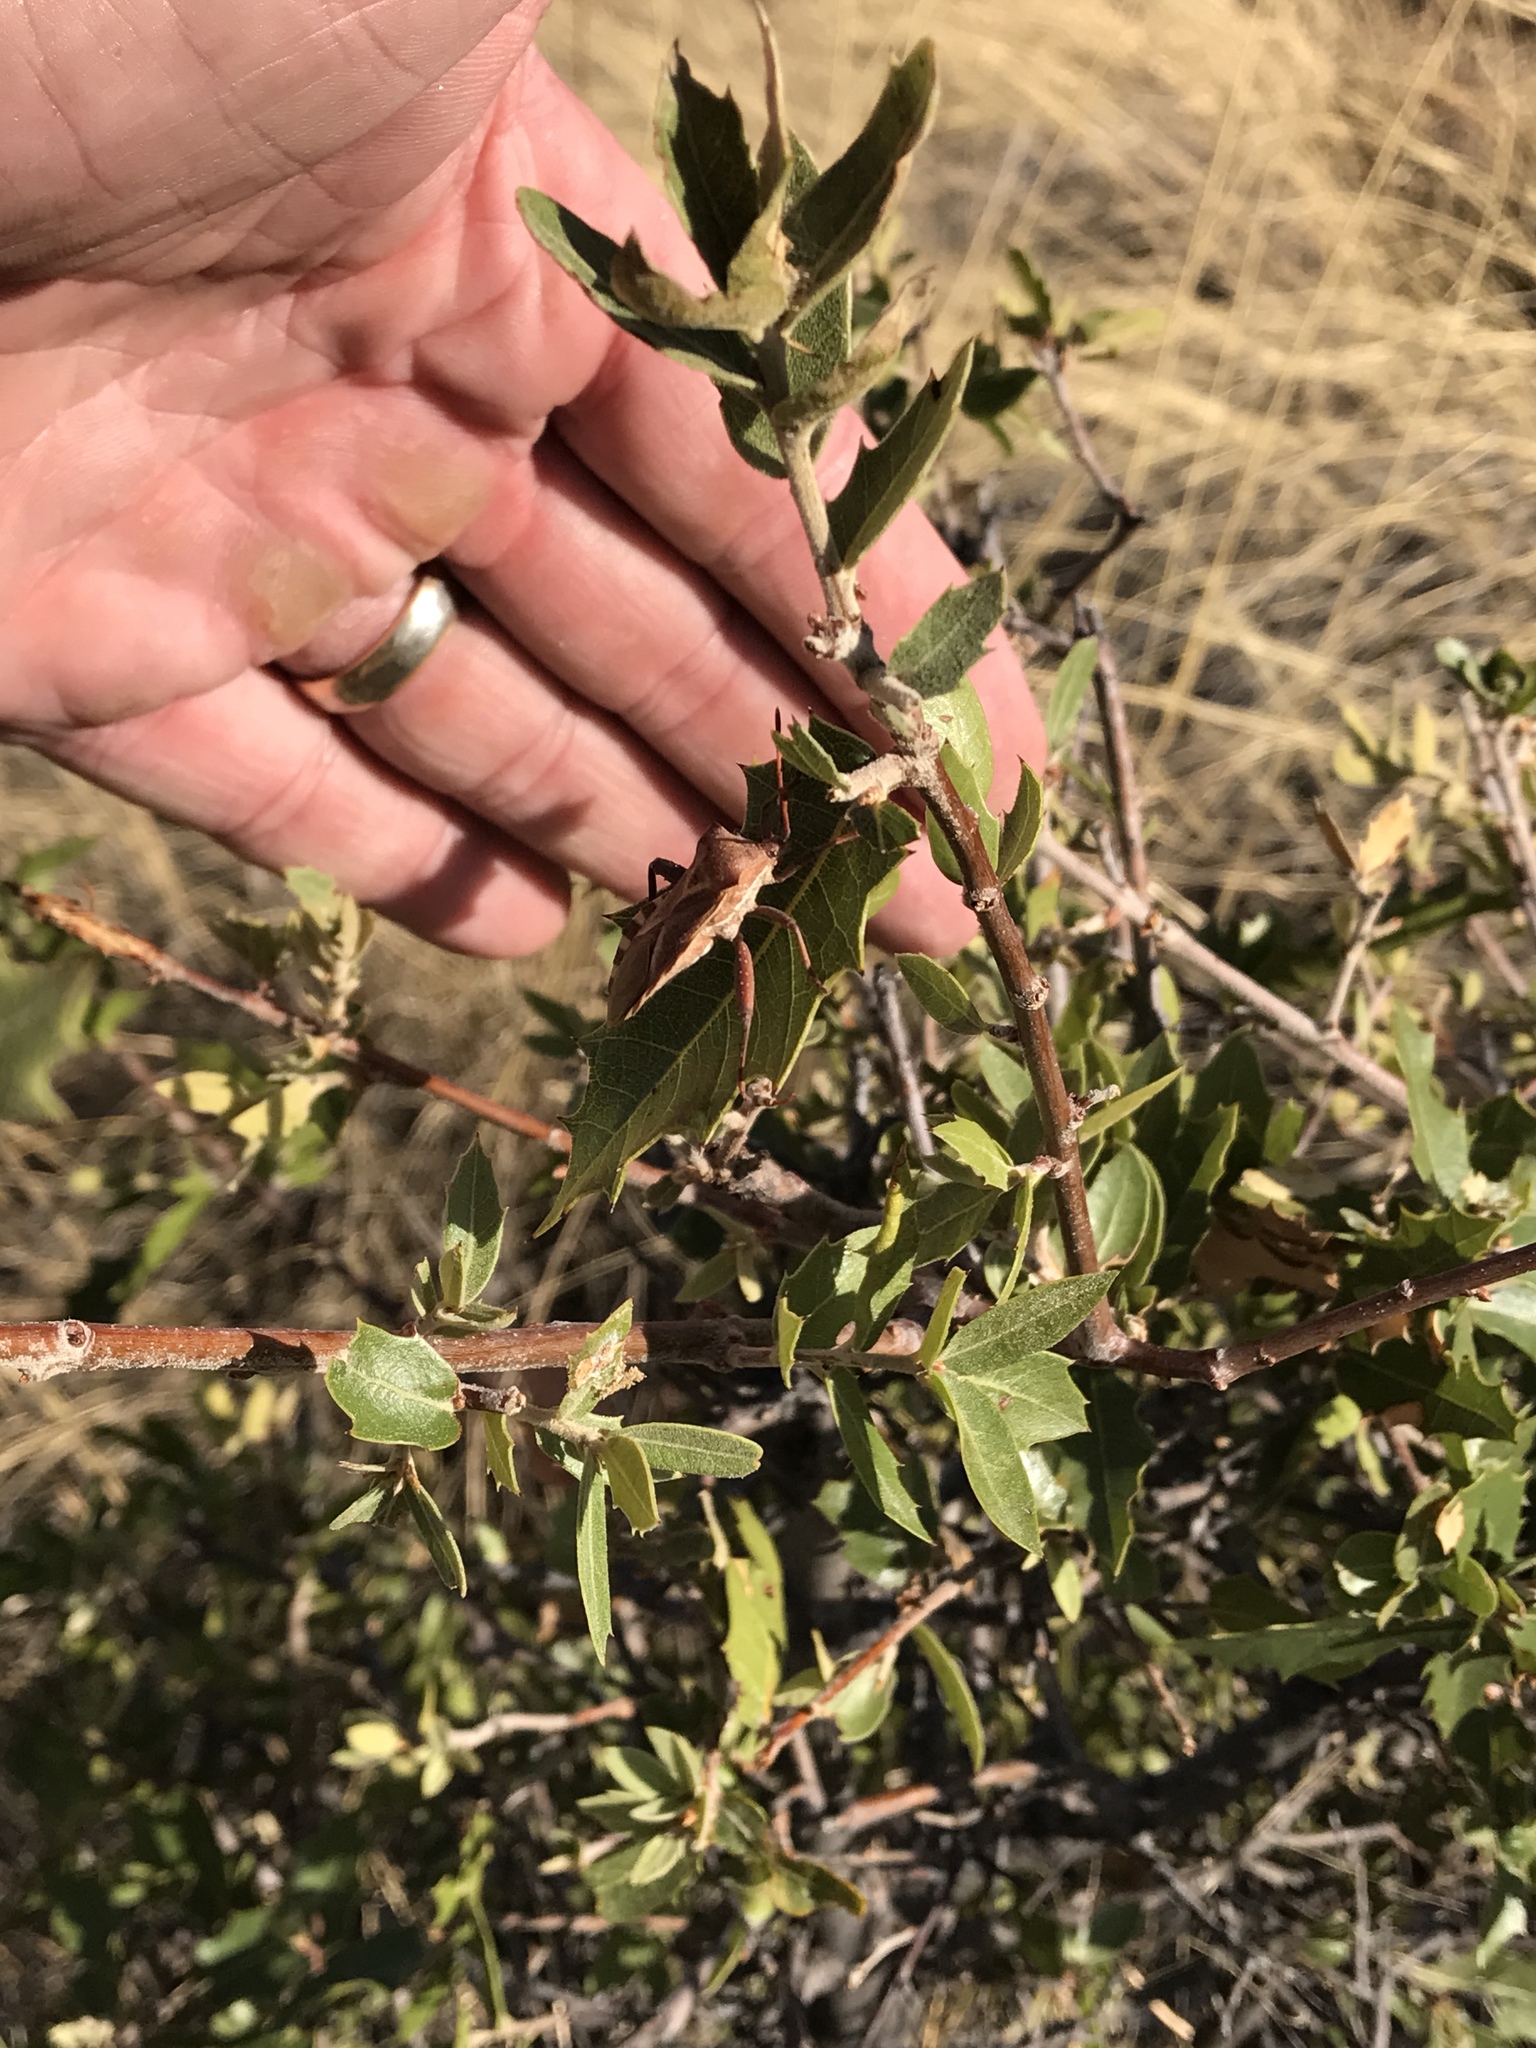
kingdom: Animalia
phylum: Arthropoda
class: Insecta
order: Hemiptera
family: Coreidae
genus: Mozena
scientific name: Mozena buenoi
